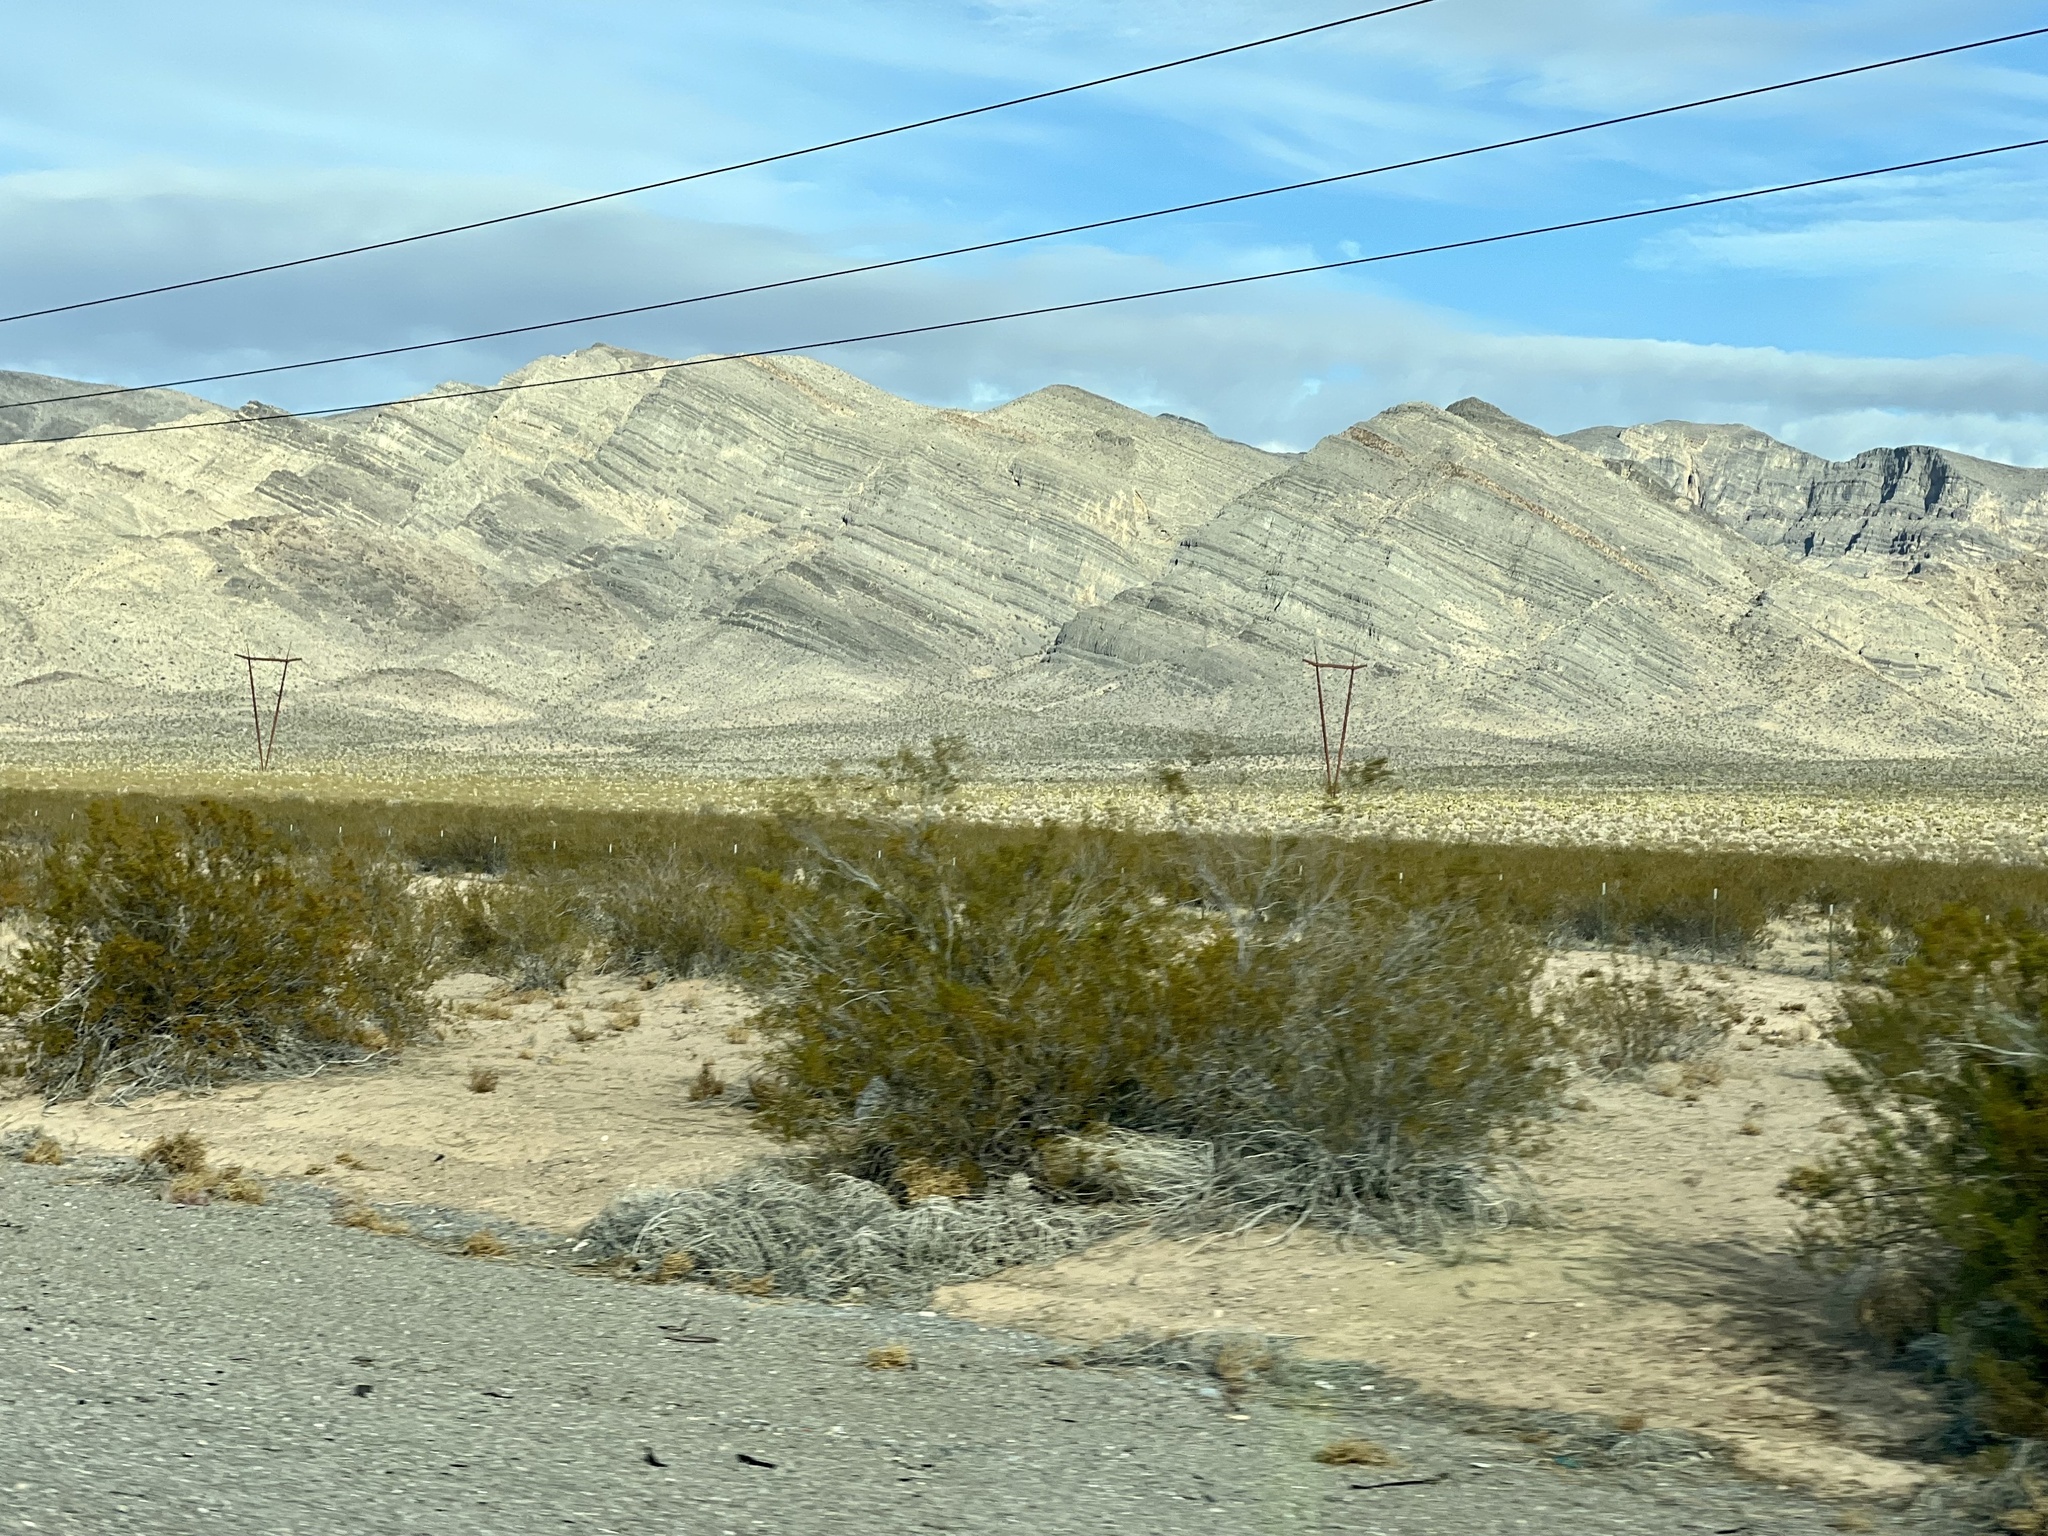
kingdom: Plantae
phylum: Tracheophyta
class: Magnoliopsida
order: Zygophyllales
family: Zygophyllaceae
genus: Larrea
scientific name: Larrea tridentata
